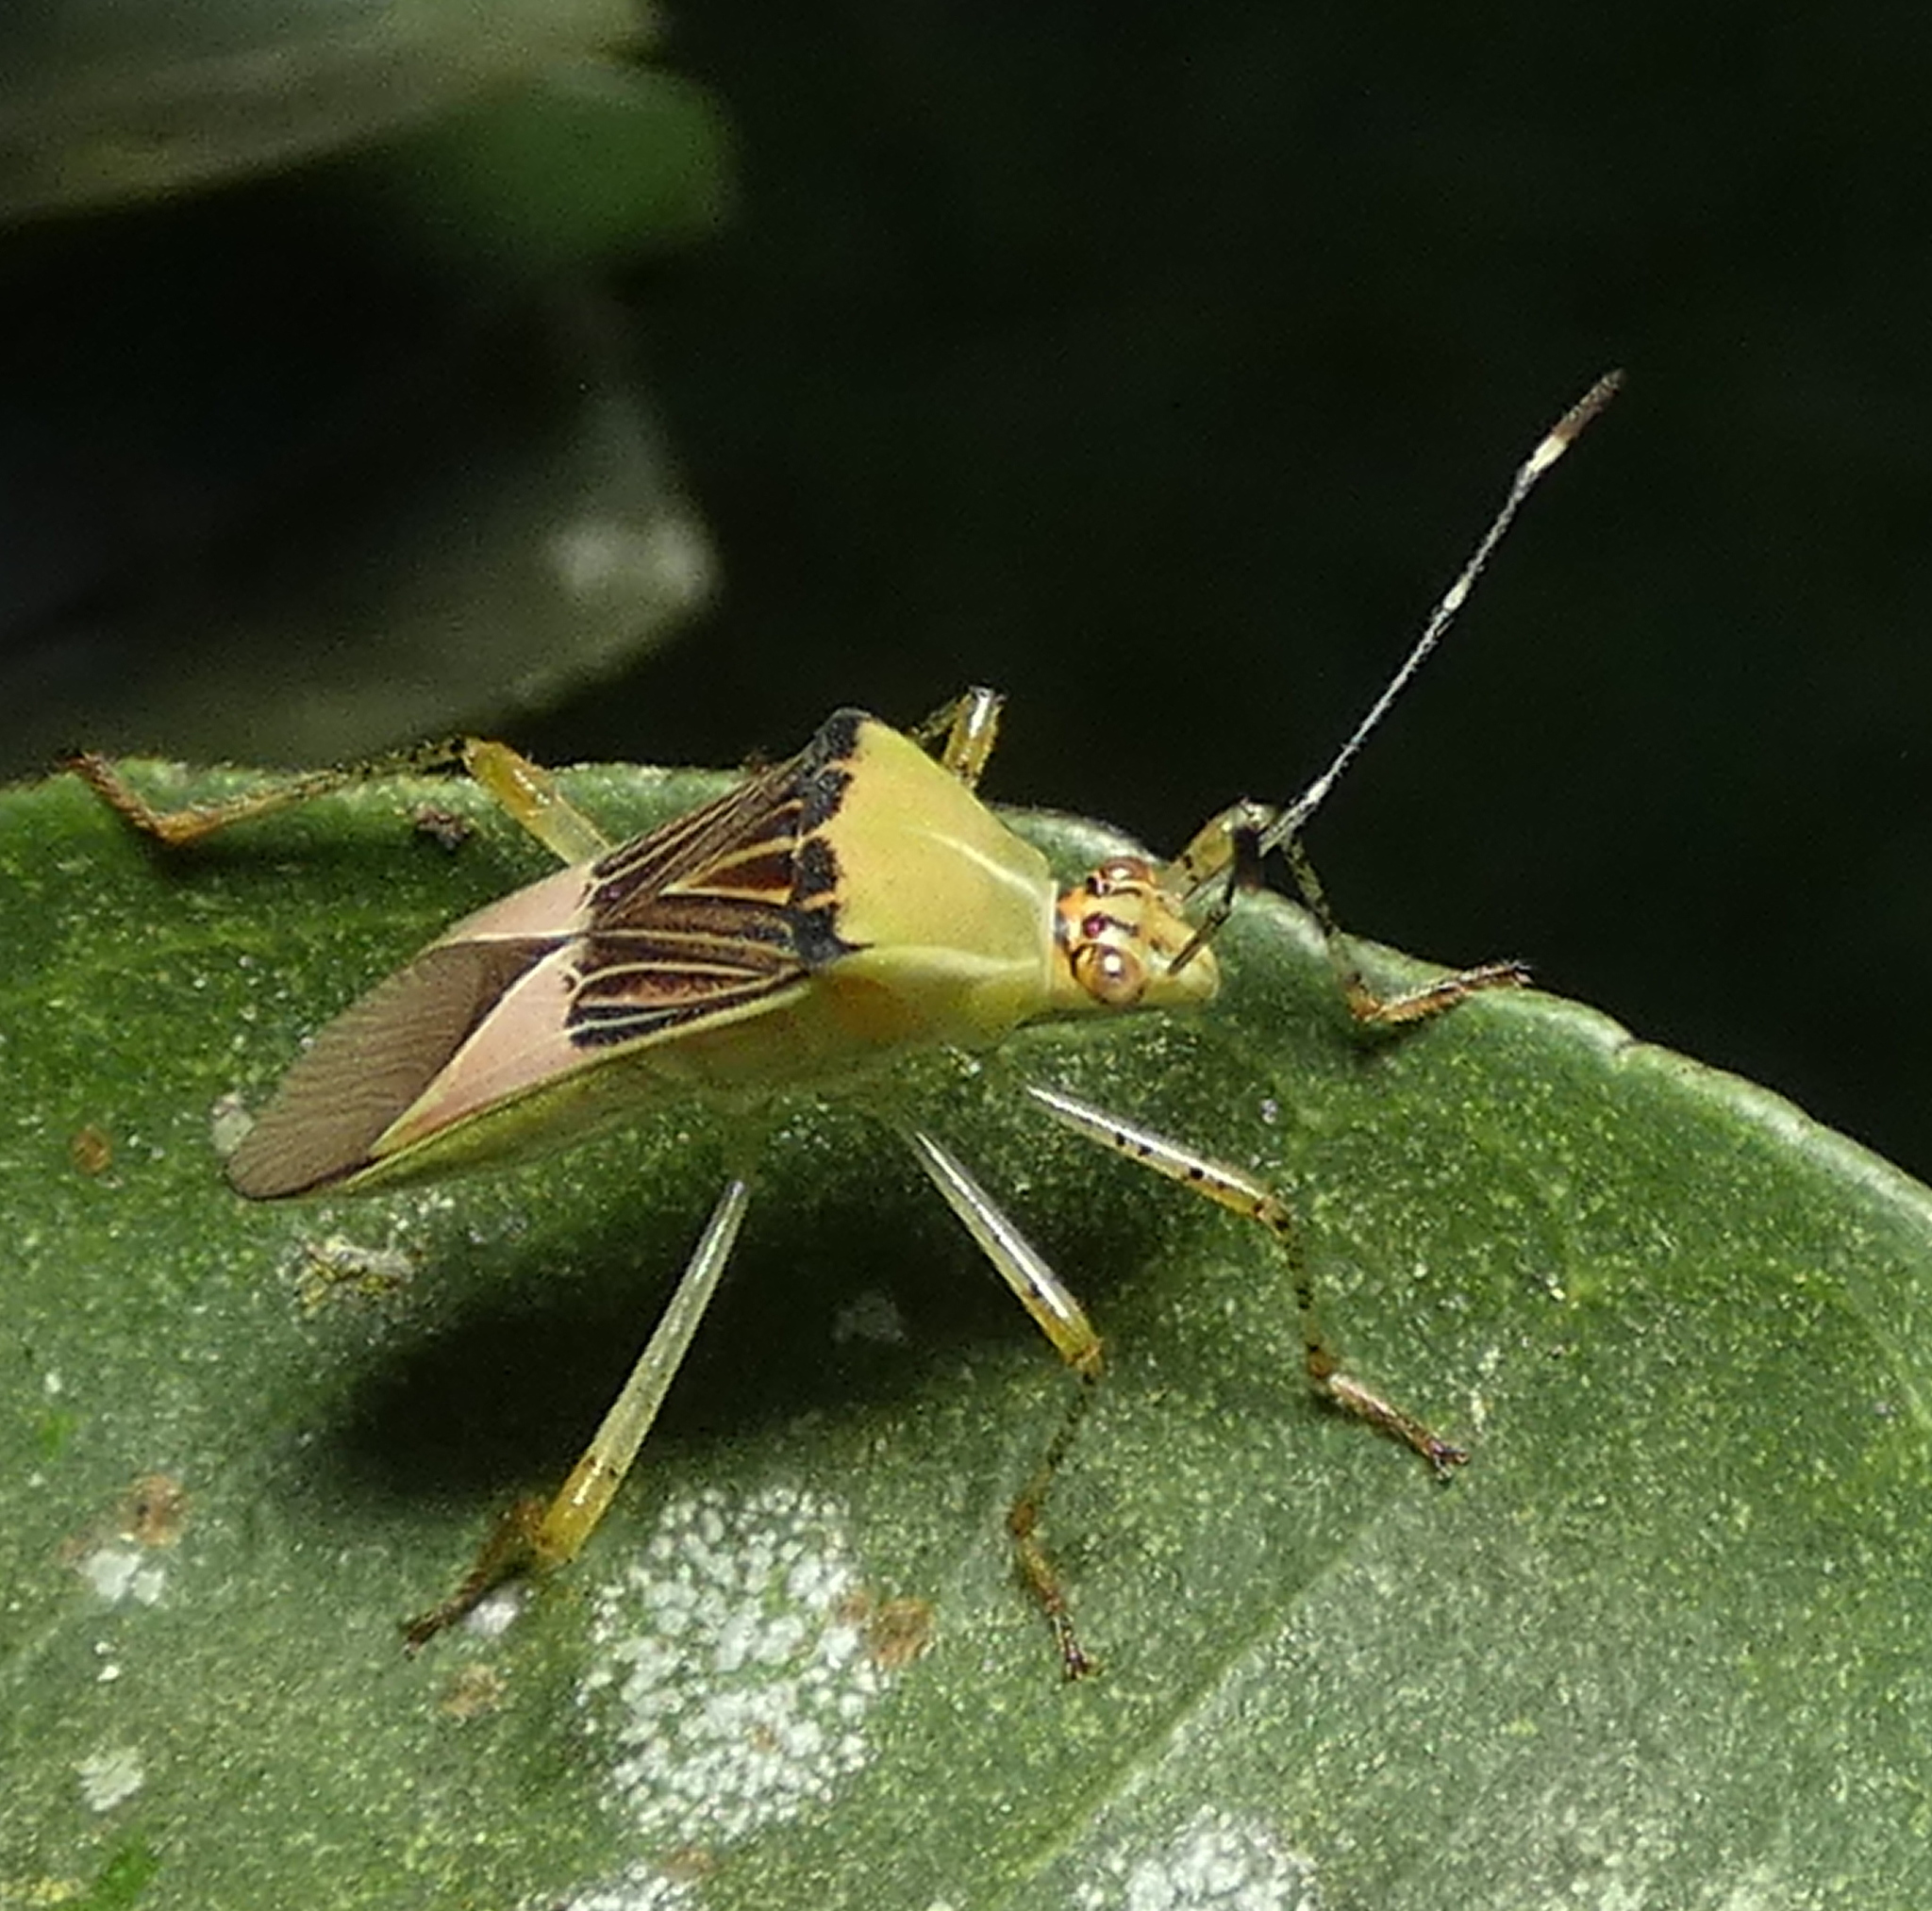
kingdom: Animalia
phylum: Arthropoda
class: Insecta
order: Hemiptera
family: Coreidae
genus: Hypselonotus
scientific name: Hypselonotus fulvus
